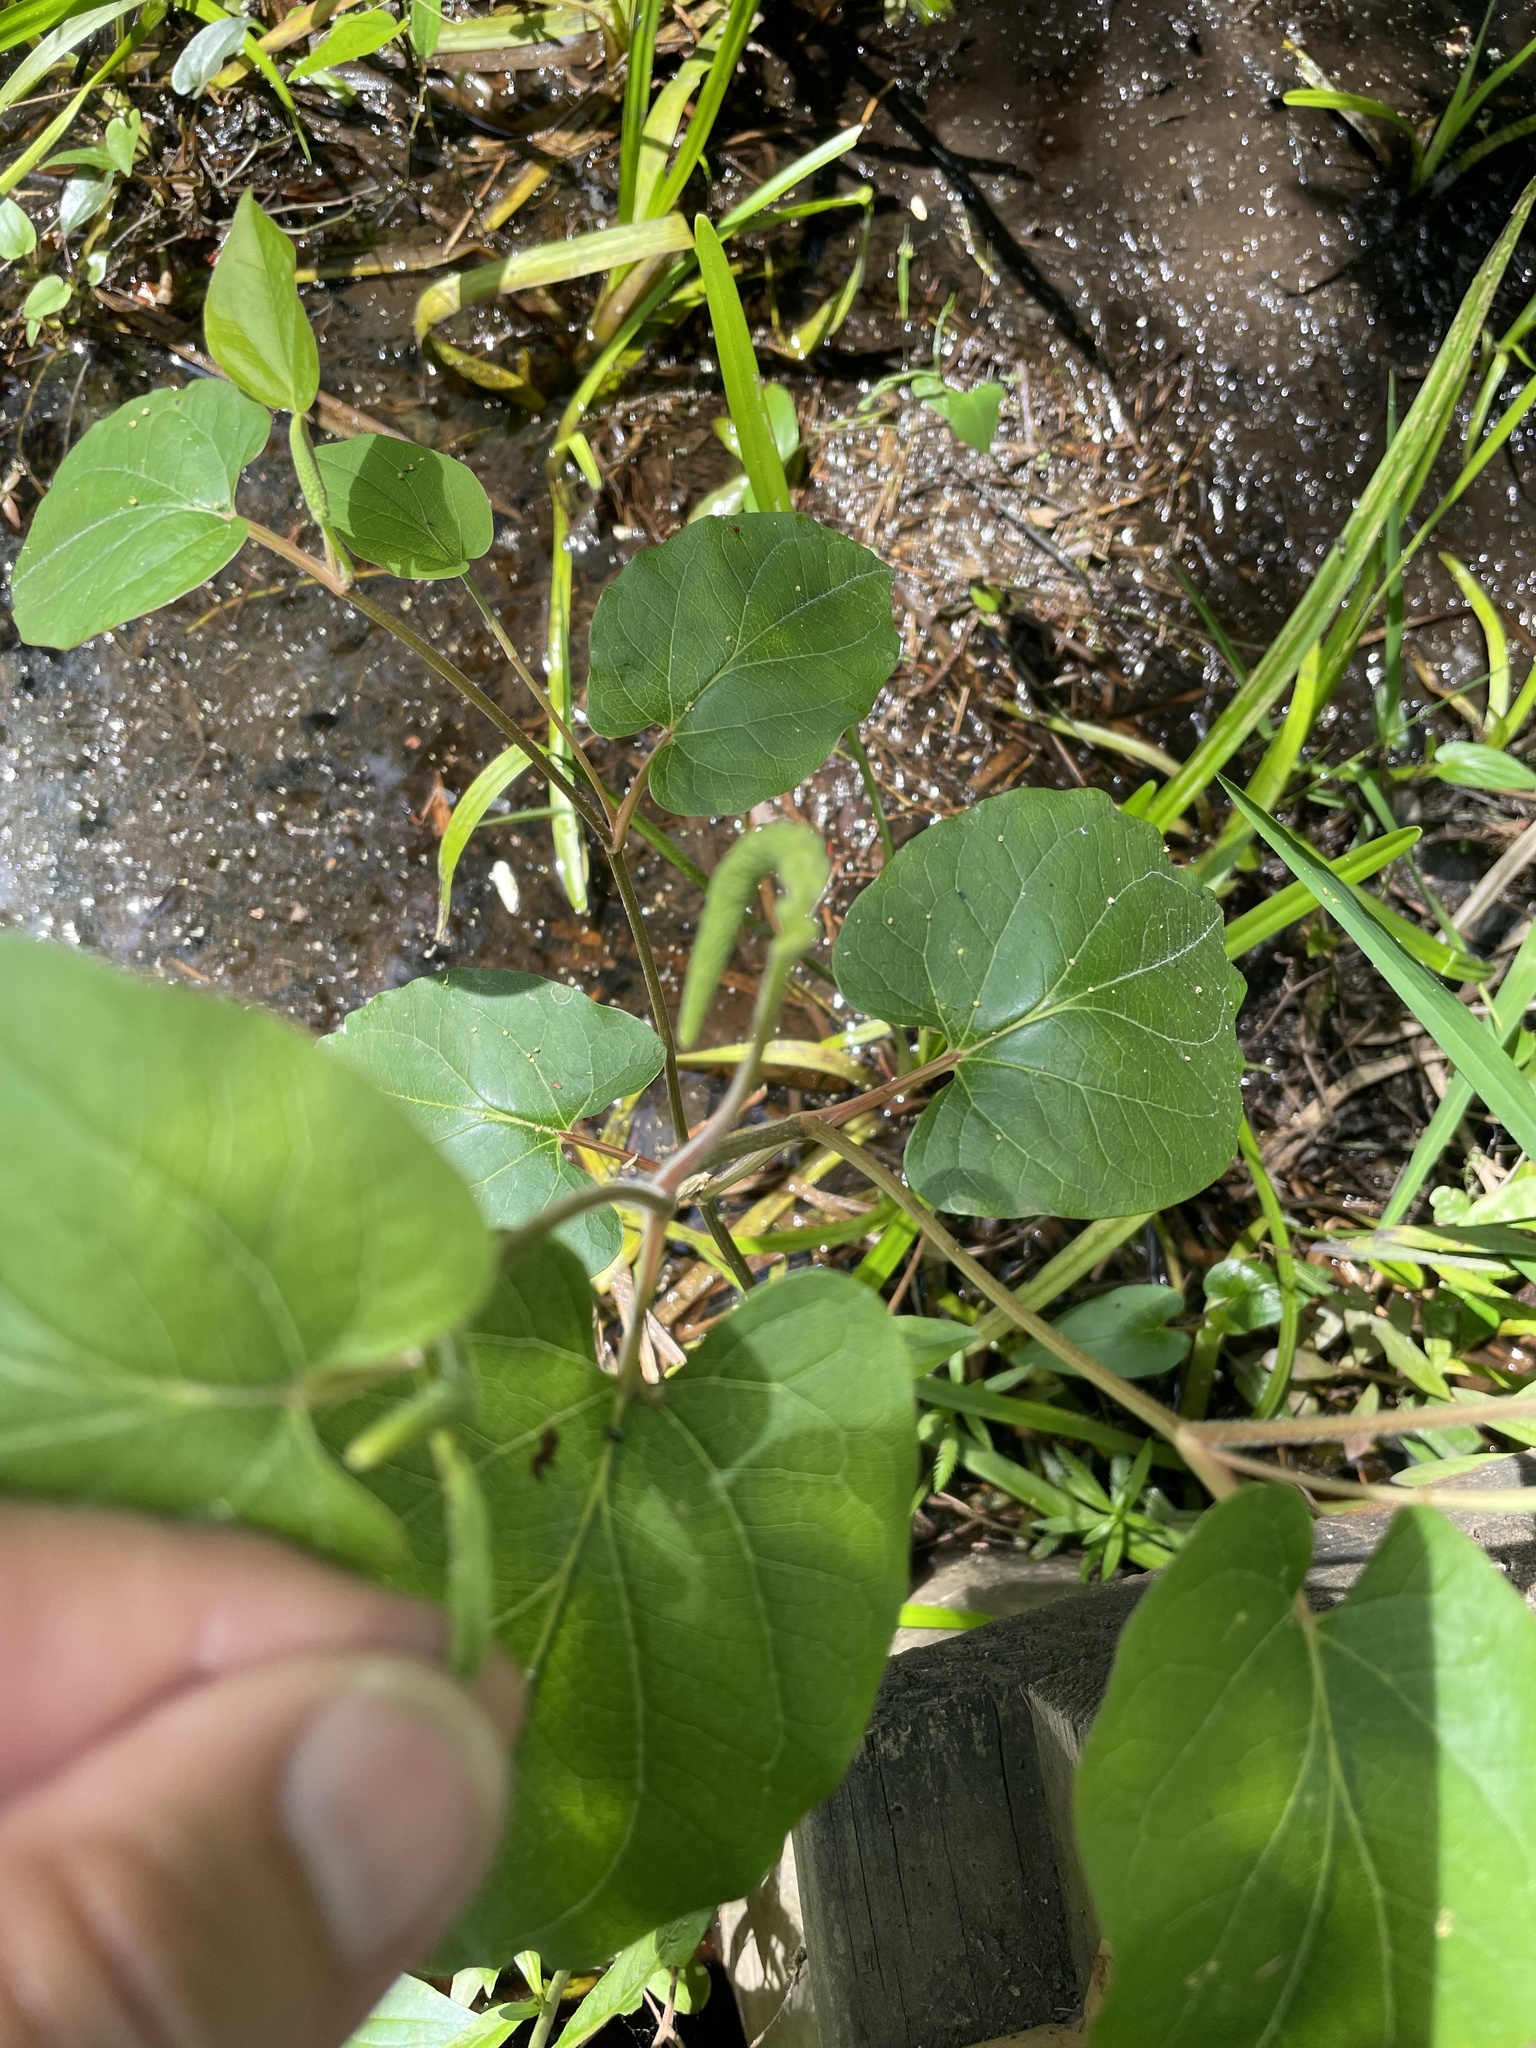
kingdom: Plantae
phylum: Tracheophyta
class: Magnoliopsida
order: Piperales
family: Saururaceae
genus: Saururus
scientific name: Saururus cernuus
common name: Lizard's-tail
